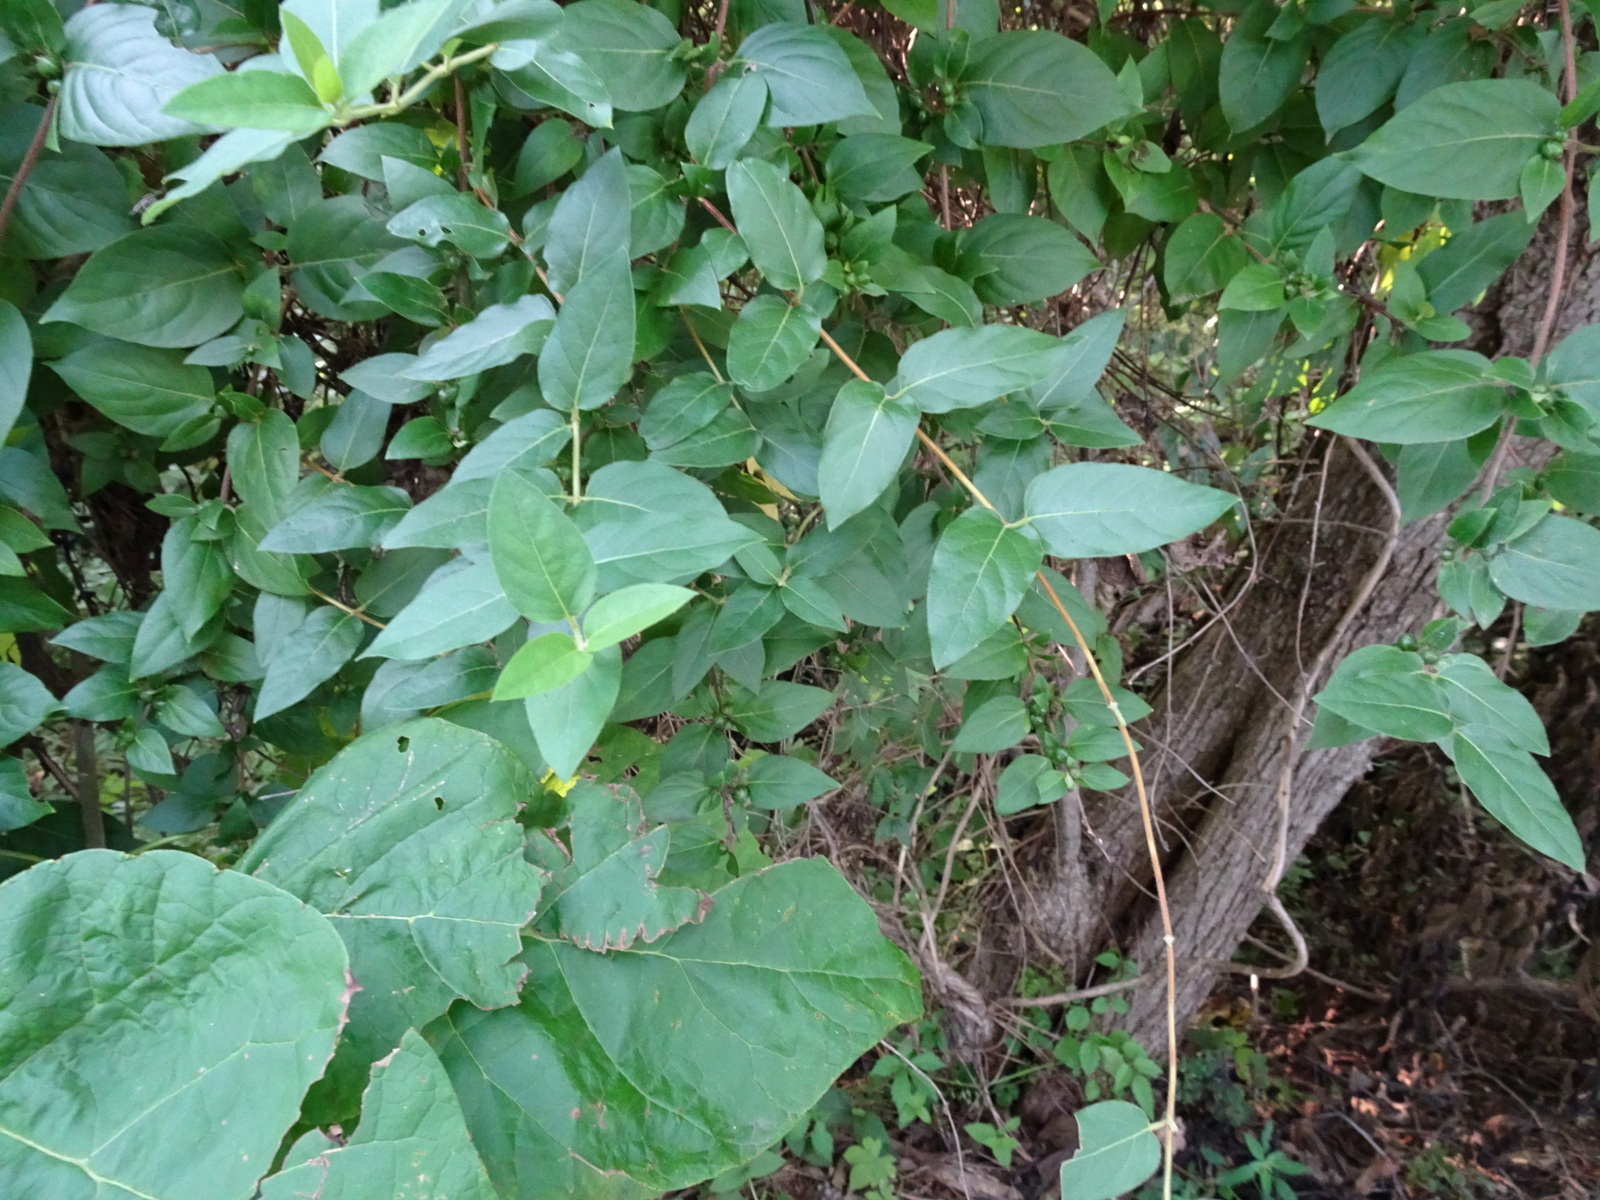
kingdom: Plantae
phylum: Tracheophyta
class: Magnoliopsida
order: Dipsacales
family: Caprifoliaceae
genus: Lonicera
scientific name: Lonicera japonica
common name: Japanese honeysuckle
